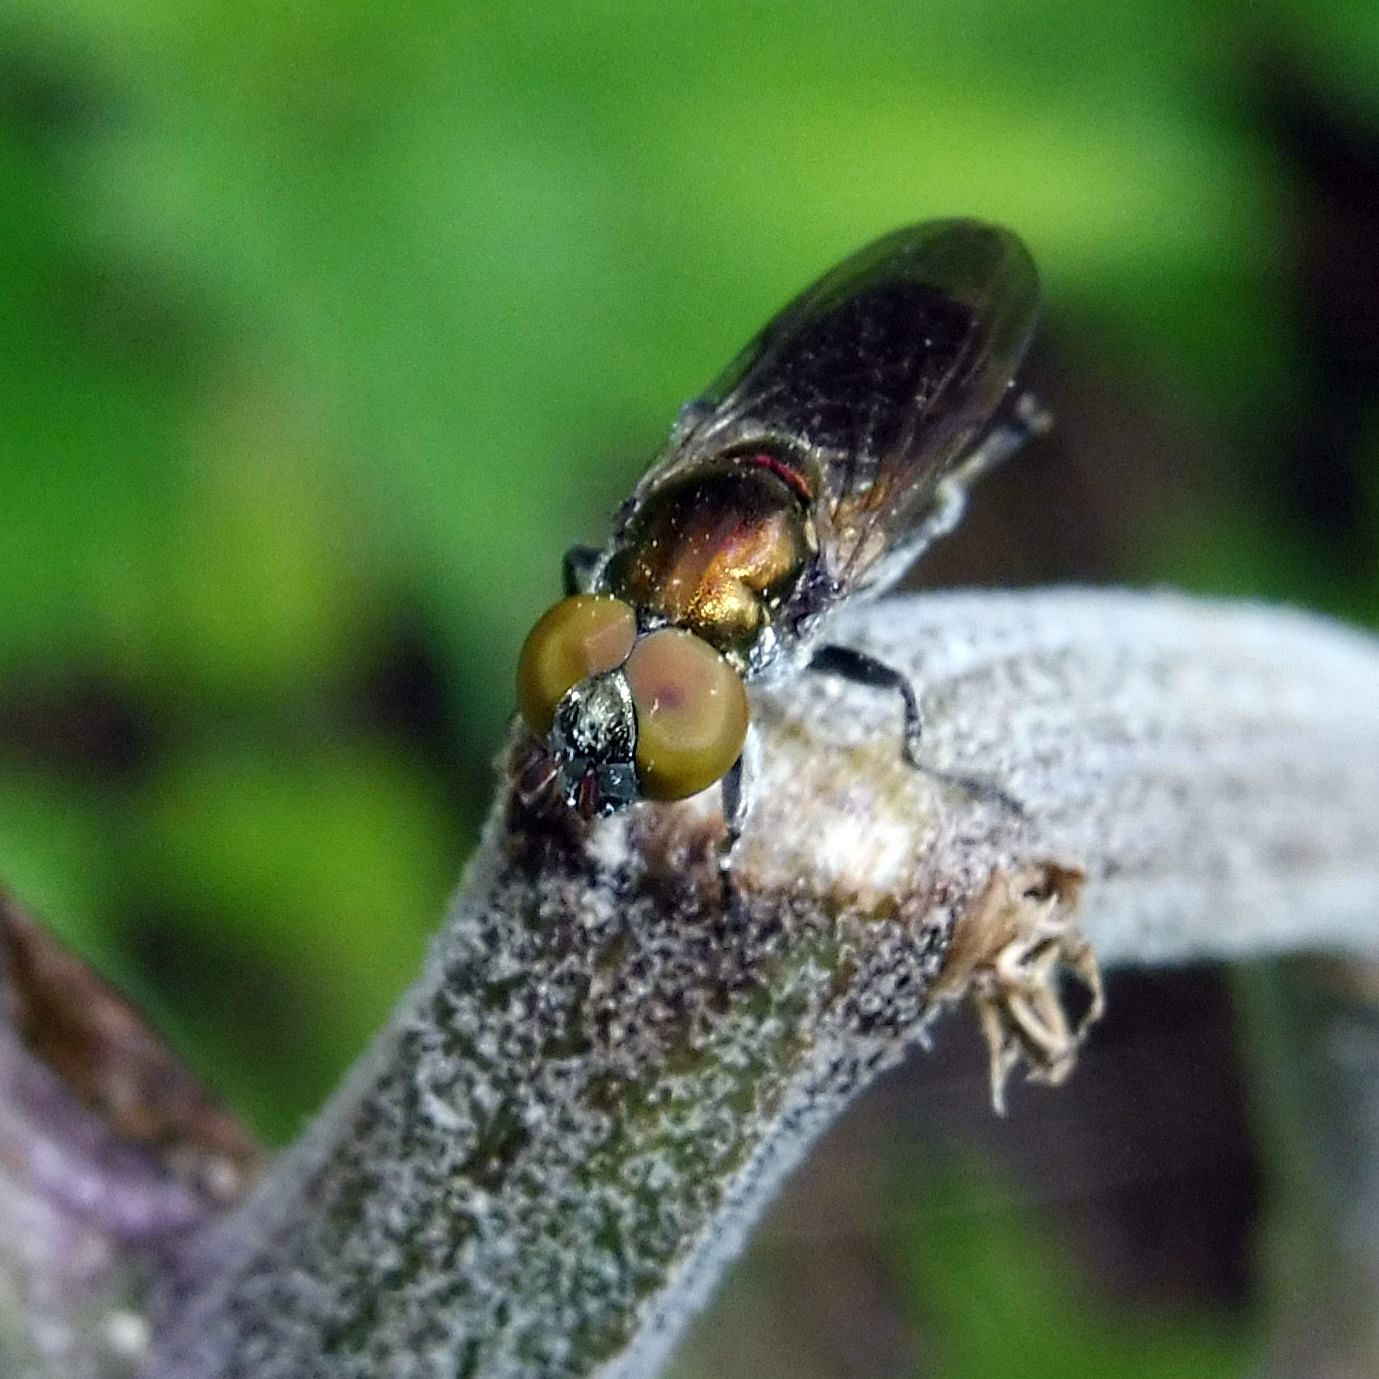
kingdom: Animalia
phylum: Arthropoda
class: Insecta
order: Diptera
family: Syrphidae
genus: Orthonevra
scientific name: Orthonevra splendens
